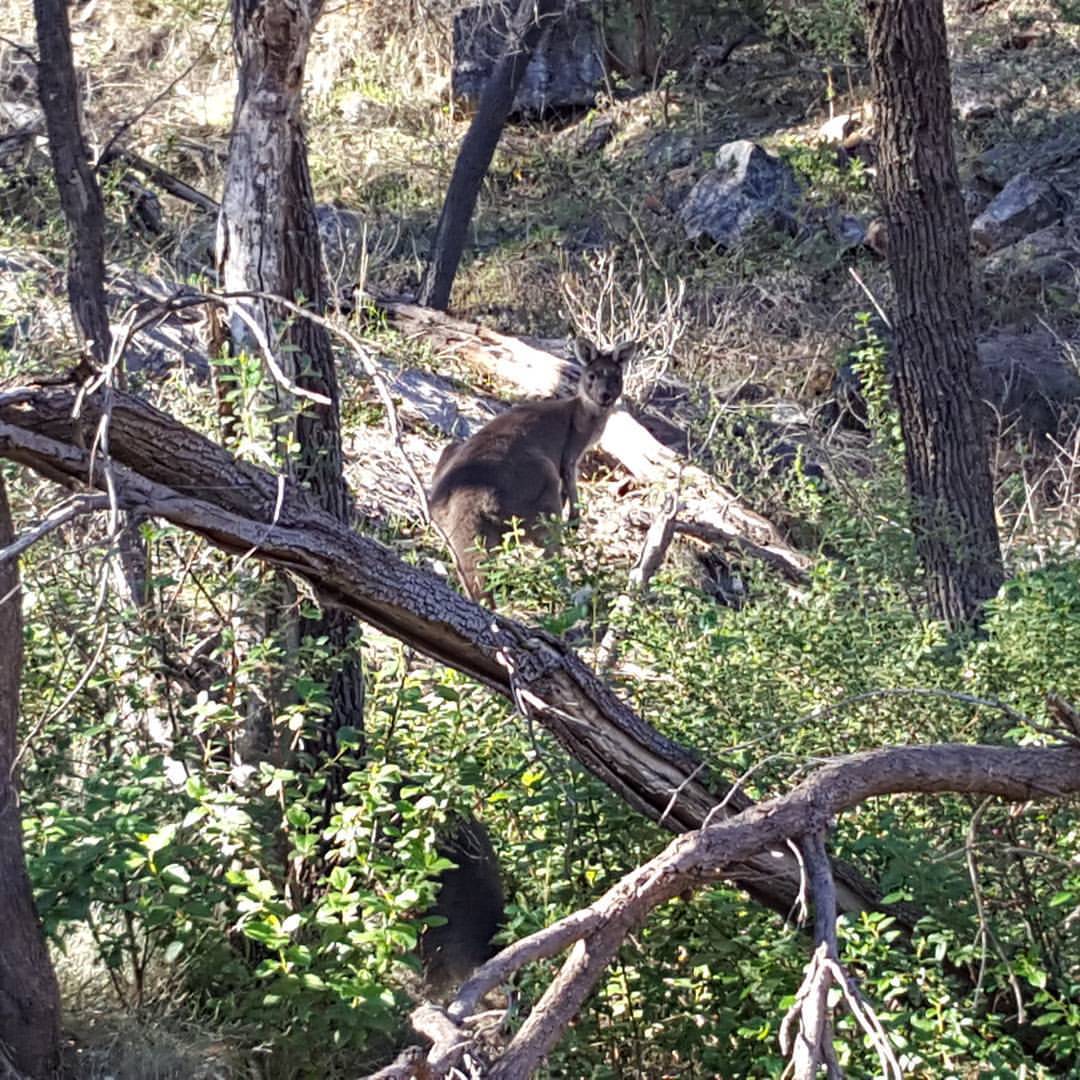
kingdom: Animalia
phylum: Chordata
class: Mammalia
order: Diprotodontia
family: Macropodidae
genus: Macropus
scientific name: Macropus fuliginosus
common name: Western grey kangaroo
